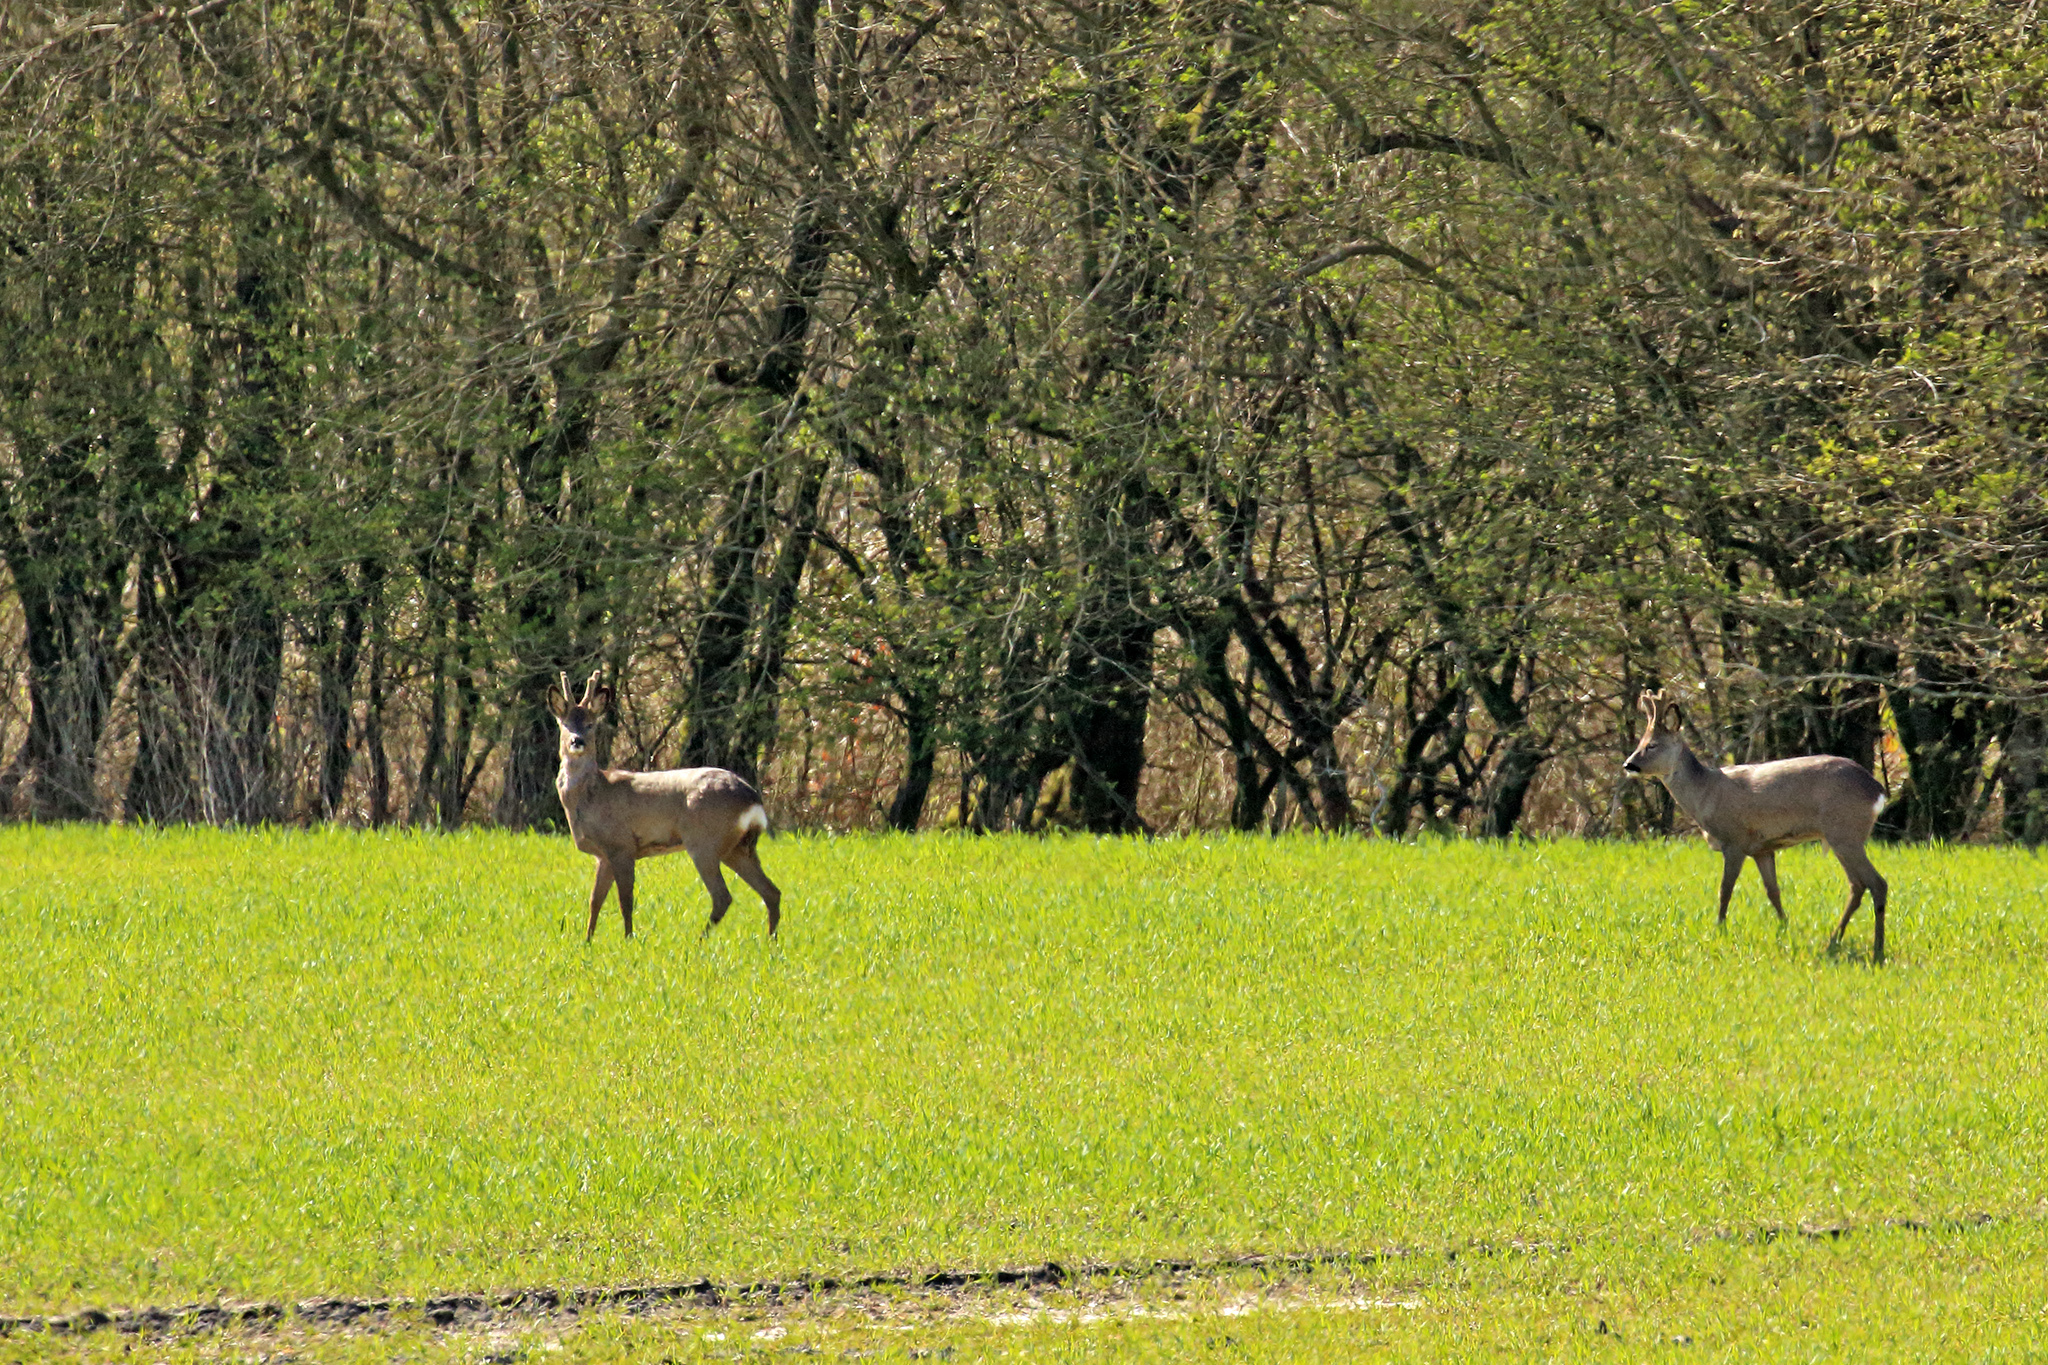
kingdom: Animalia
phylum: Chordata
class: Mammalia
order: Artiodactyla
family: Cervidae
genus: Capreolus
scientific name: Capreolus capreolus
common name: Western roe deer
